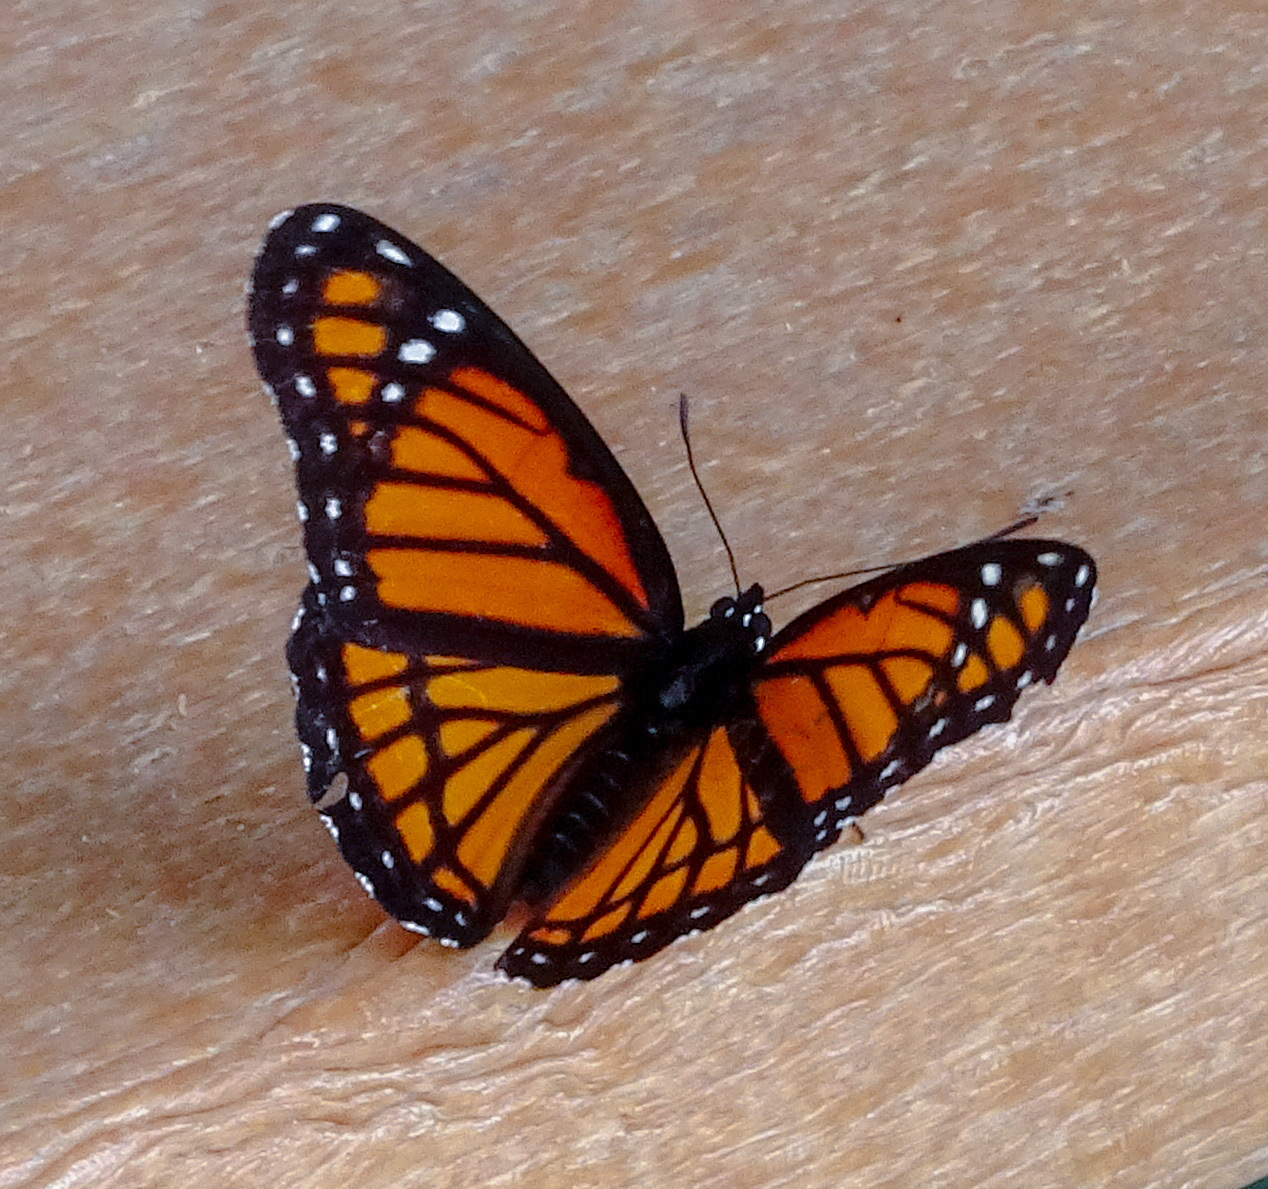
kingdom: Animalia
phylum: Arthropoda
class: Insecta
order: Lepidoptera
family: Nymphalidae
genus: Limenitis
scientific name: Limenitis archippus
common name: Viceroy
